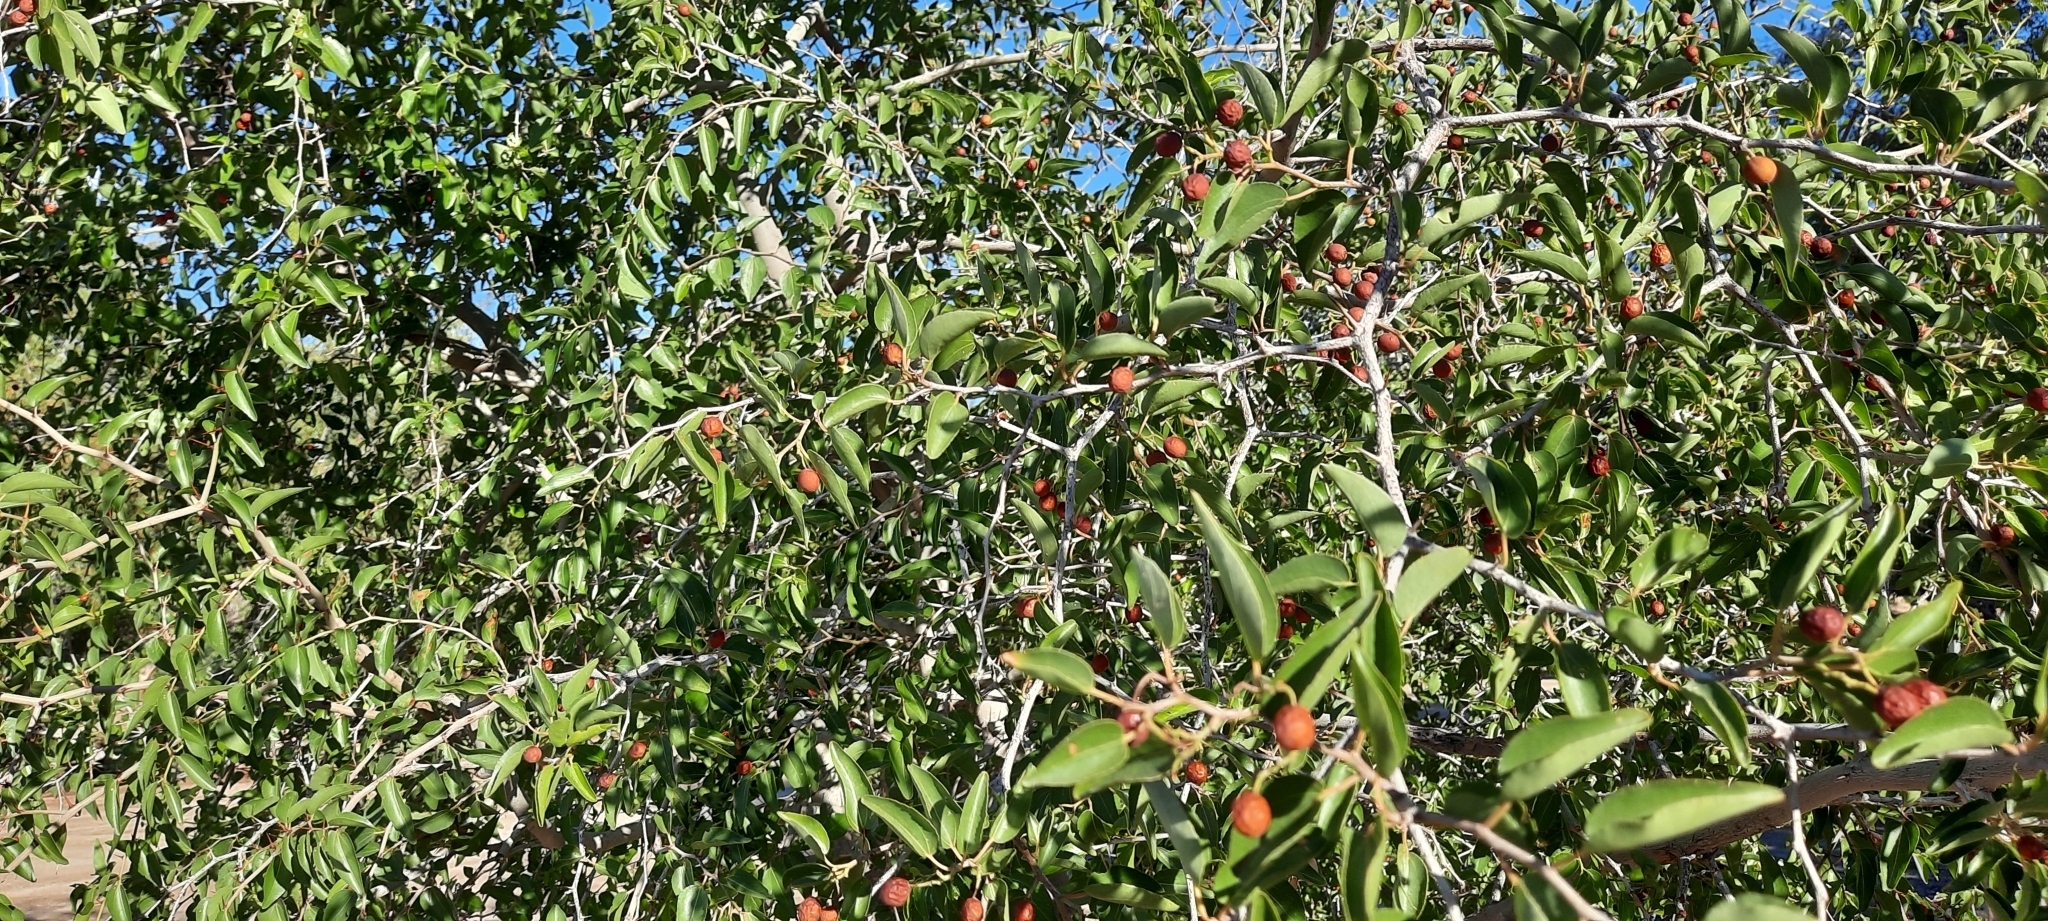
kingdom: Plantae
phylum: Tracheophyta
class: Magnoliopsida
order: Rosales
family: Rhamnaceae
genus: Ziziphus
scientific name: Ziziphus mucronata
